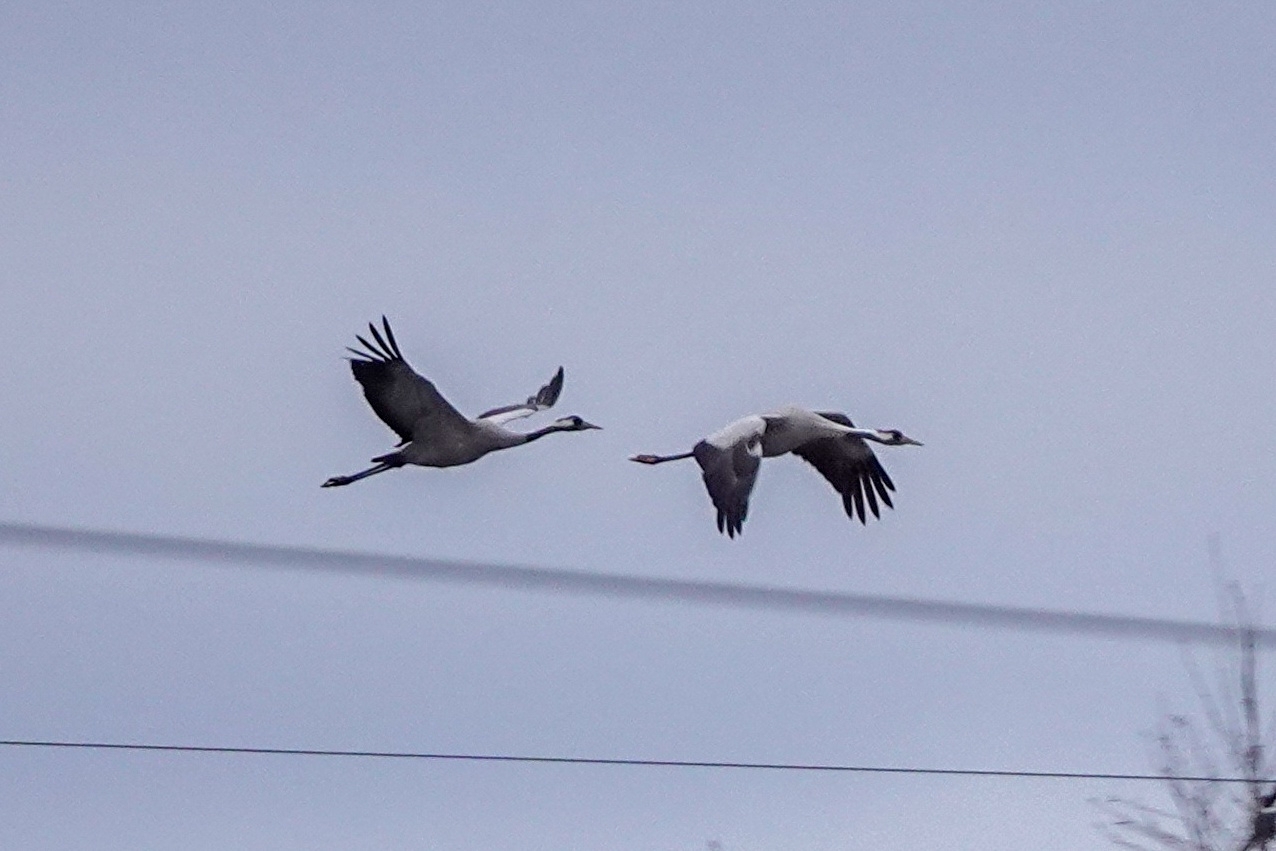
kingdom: Animalia
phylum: Chordata
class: Aves
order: Gruiformes
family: Gruidae
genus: Grus
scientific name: Grus grus
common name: Common crane
